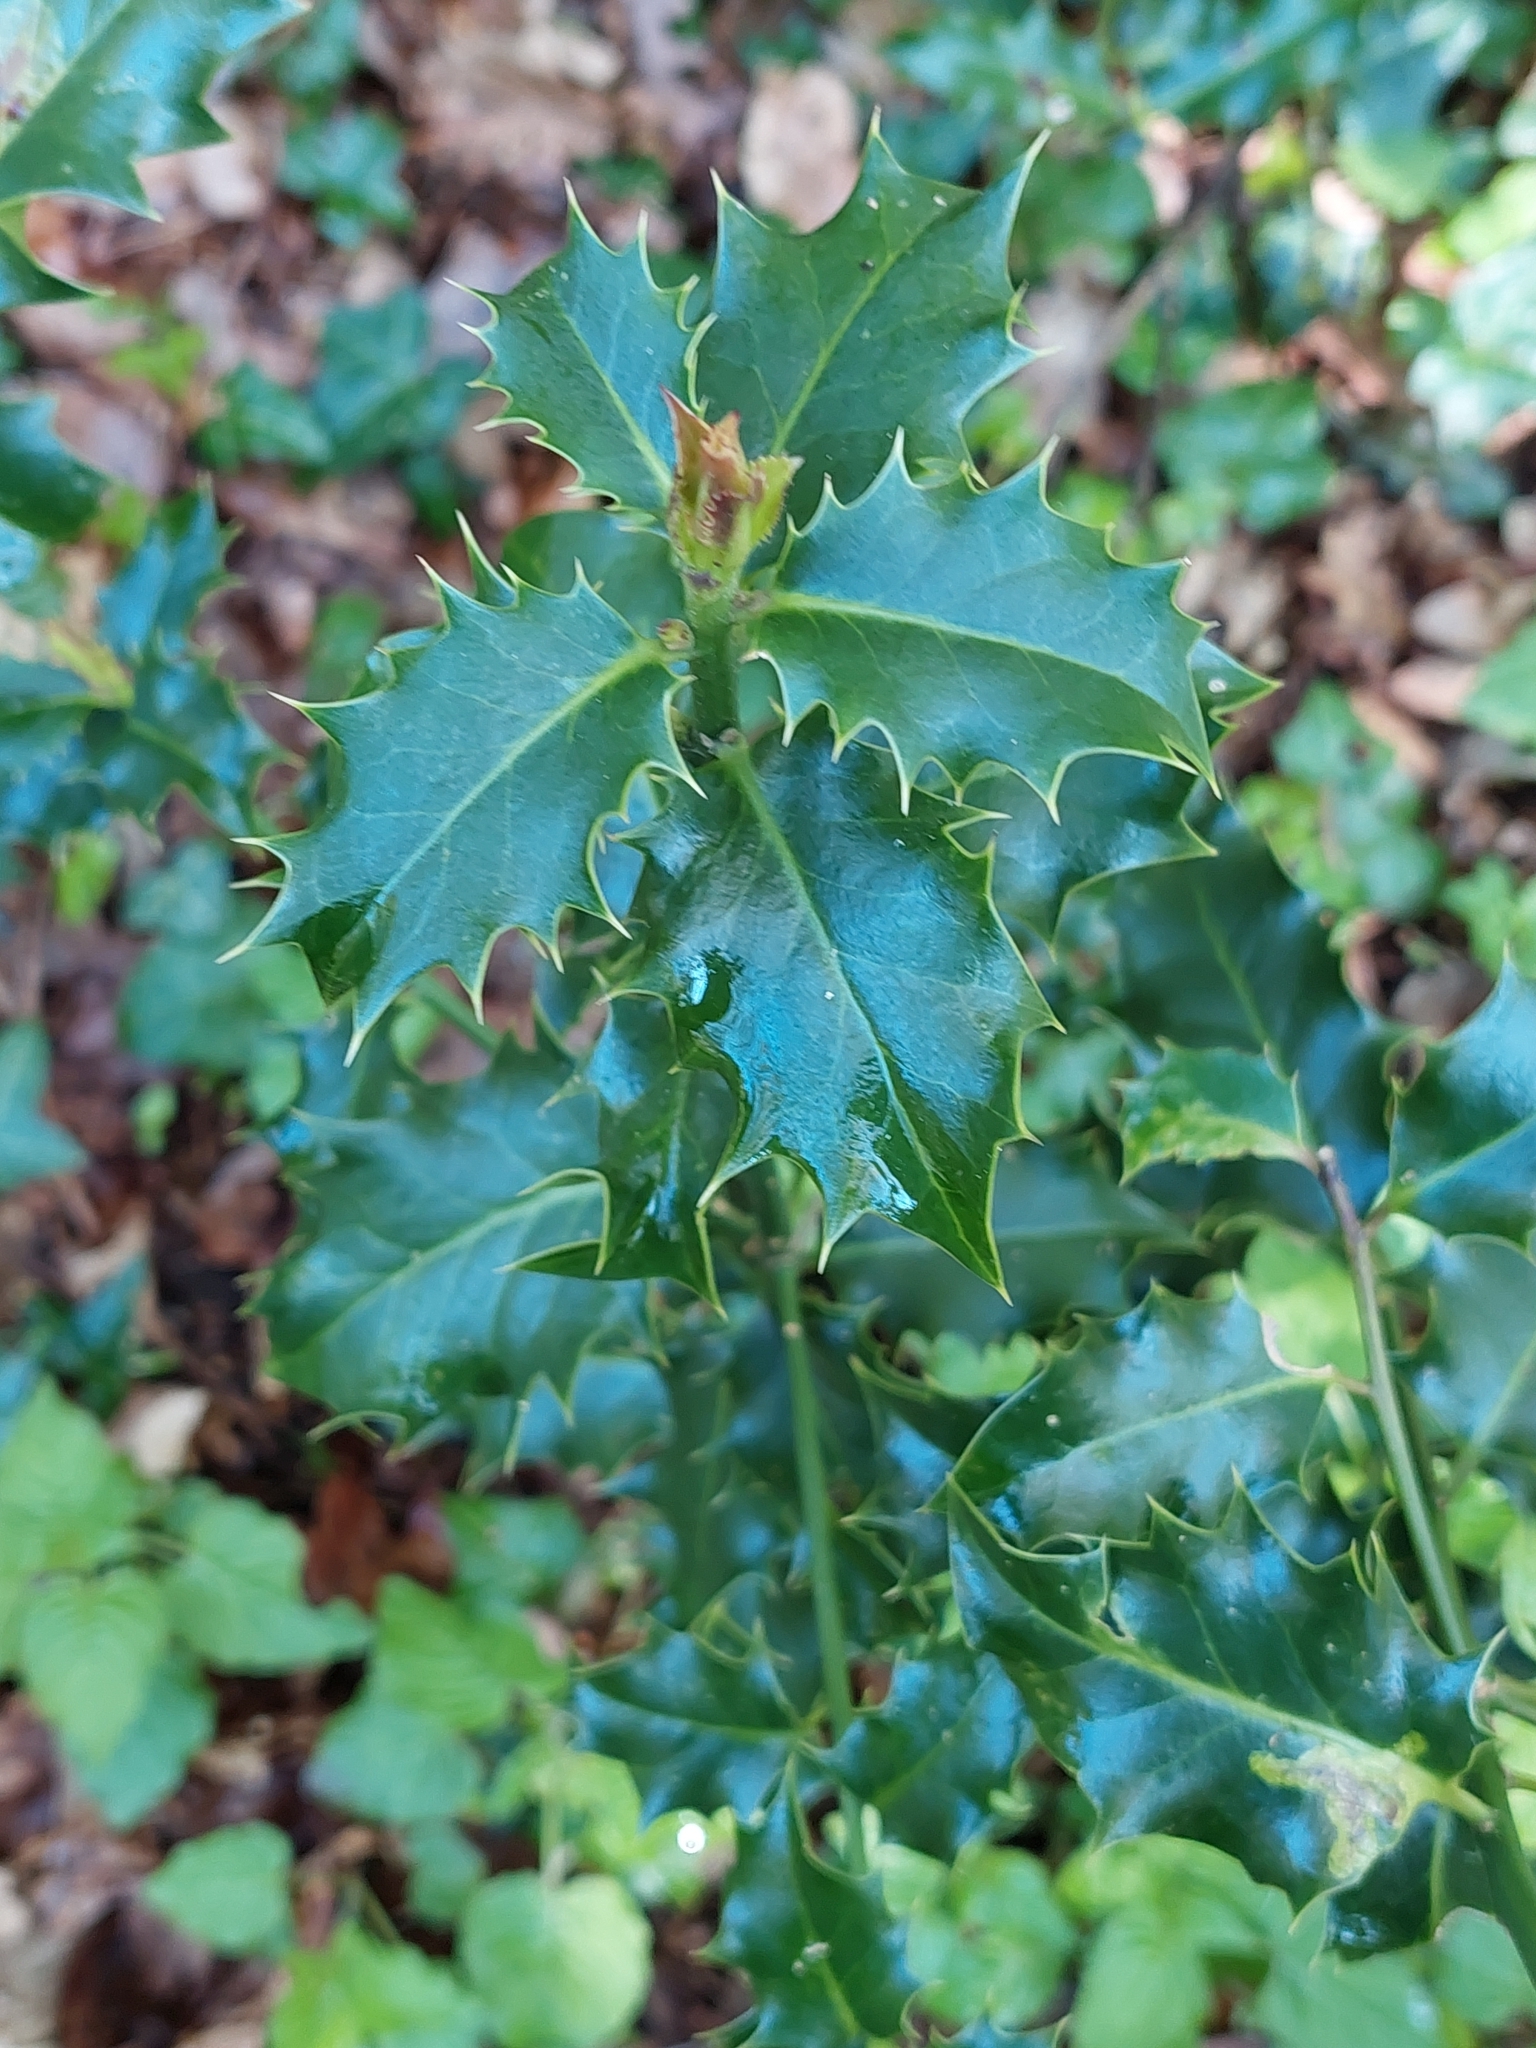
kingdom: Plantae
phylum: Tracheophyta
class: Magnoliopsida
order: Aquifoliales
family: Aquifoliaceae
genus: Ilex
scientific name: Ilex aquifolium
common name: English holly
